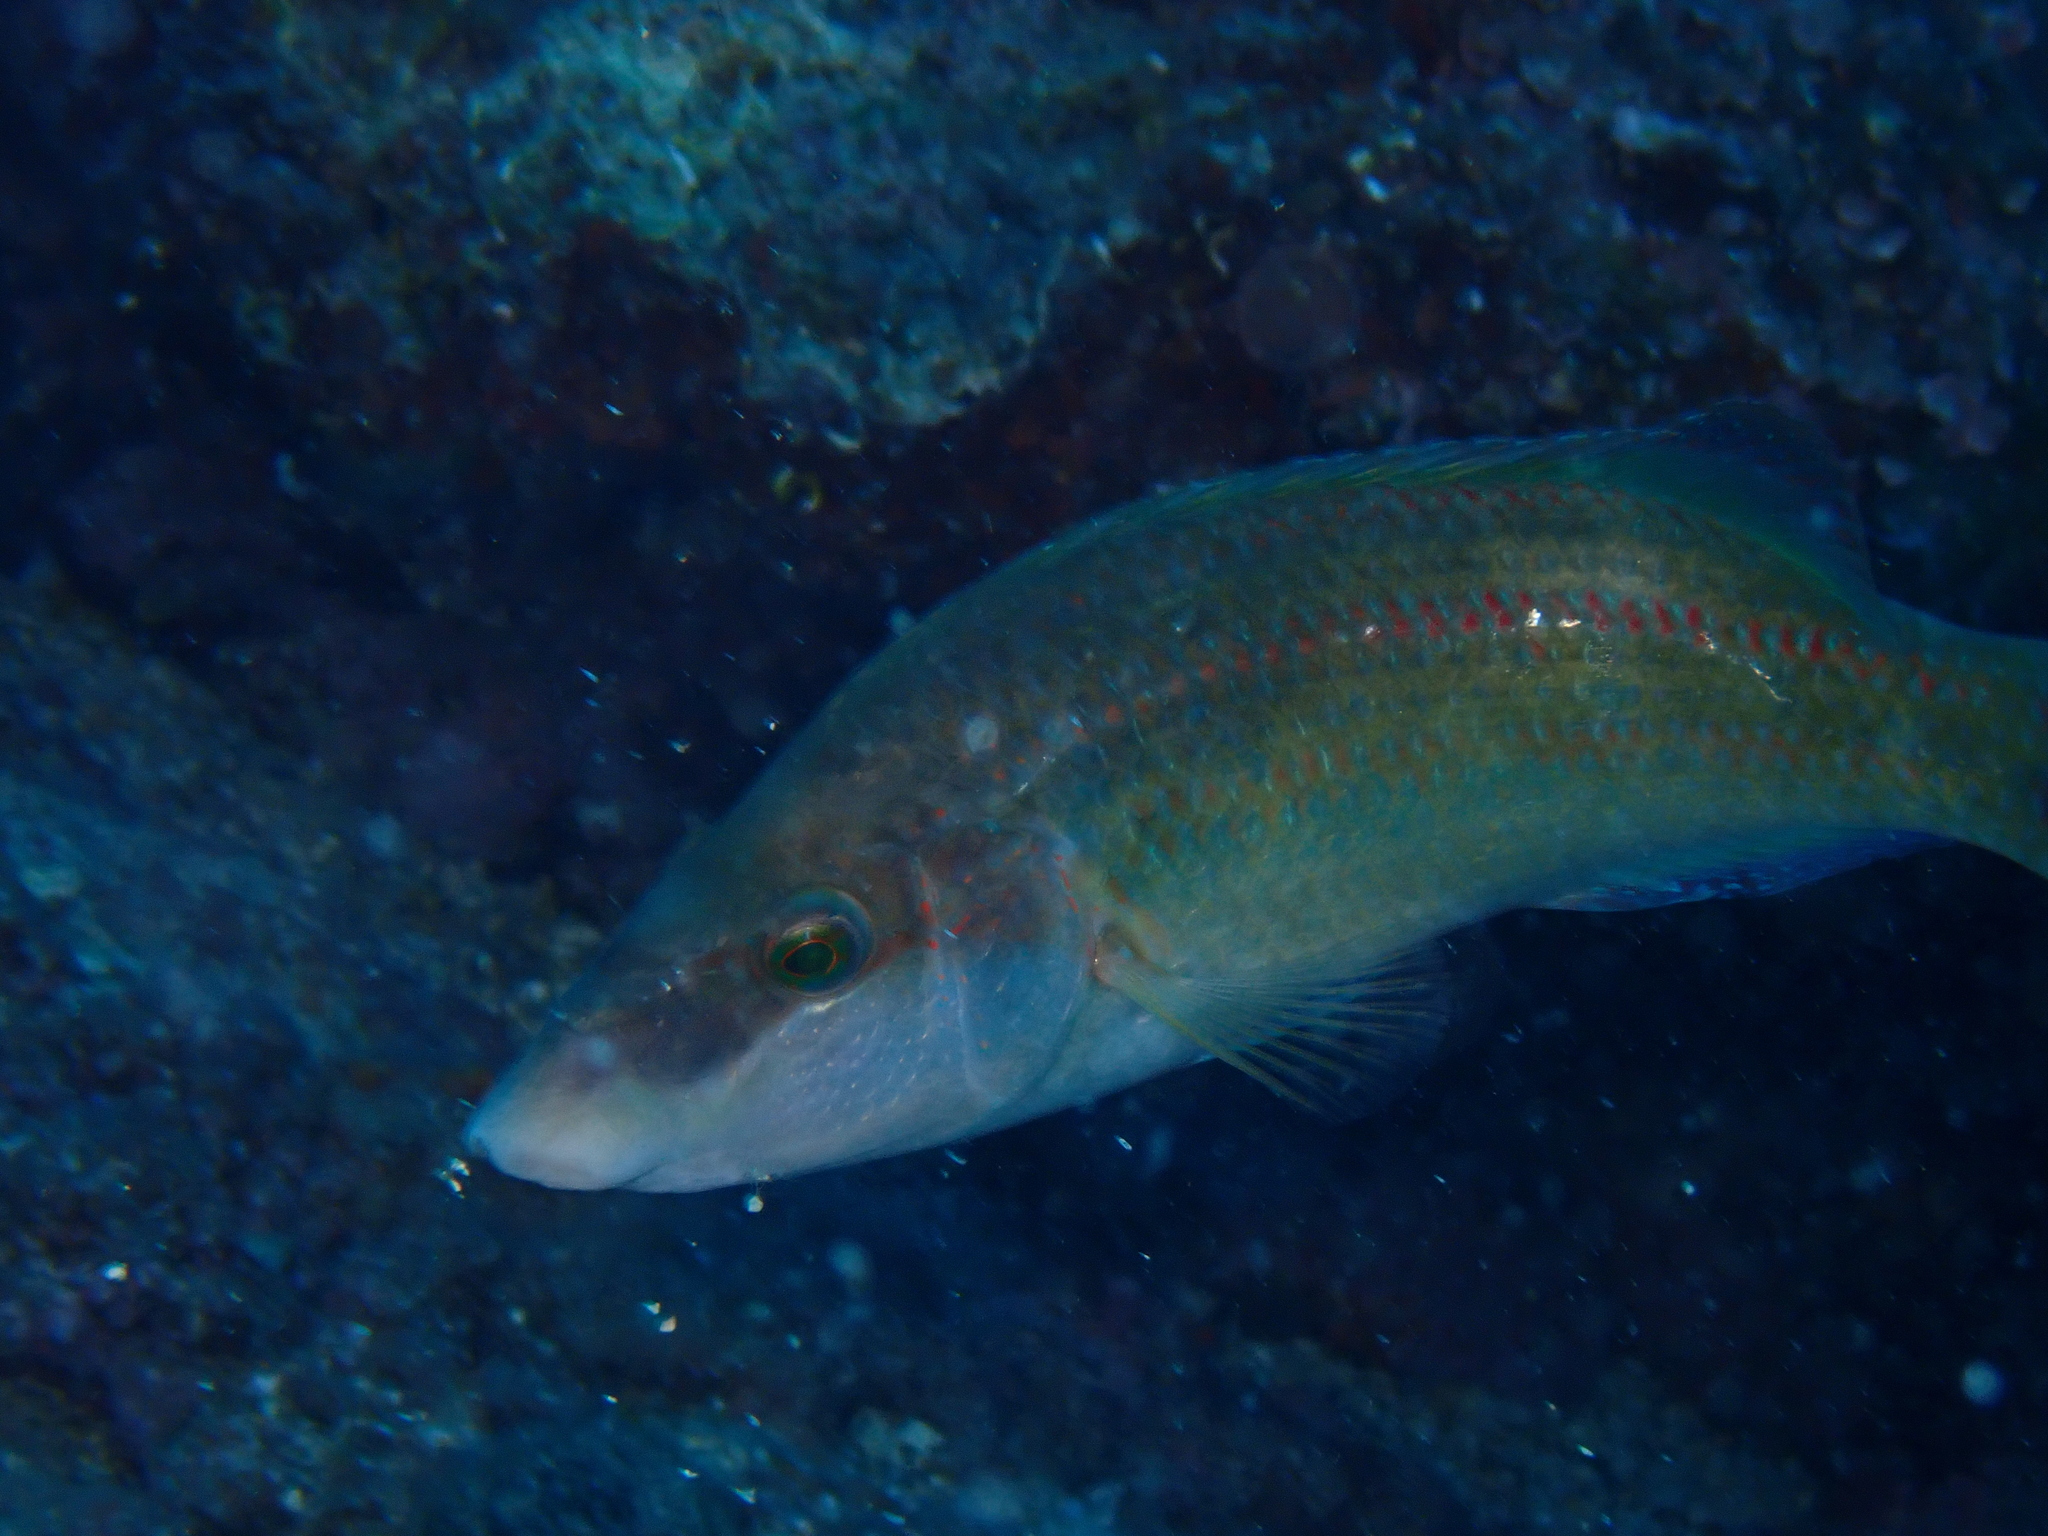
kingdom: Animalia
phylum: Chordata
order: Perciformes
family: Labridae
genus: Symphodus
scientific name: Symphodus tinca
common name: Peacock wrasse
